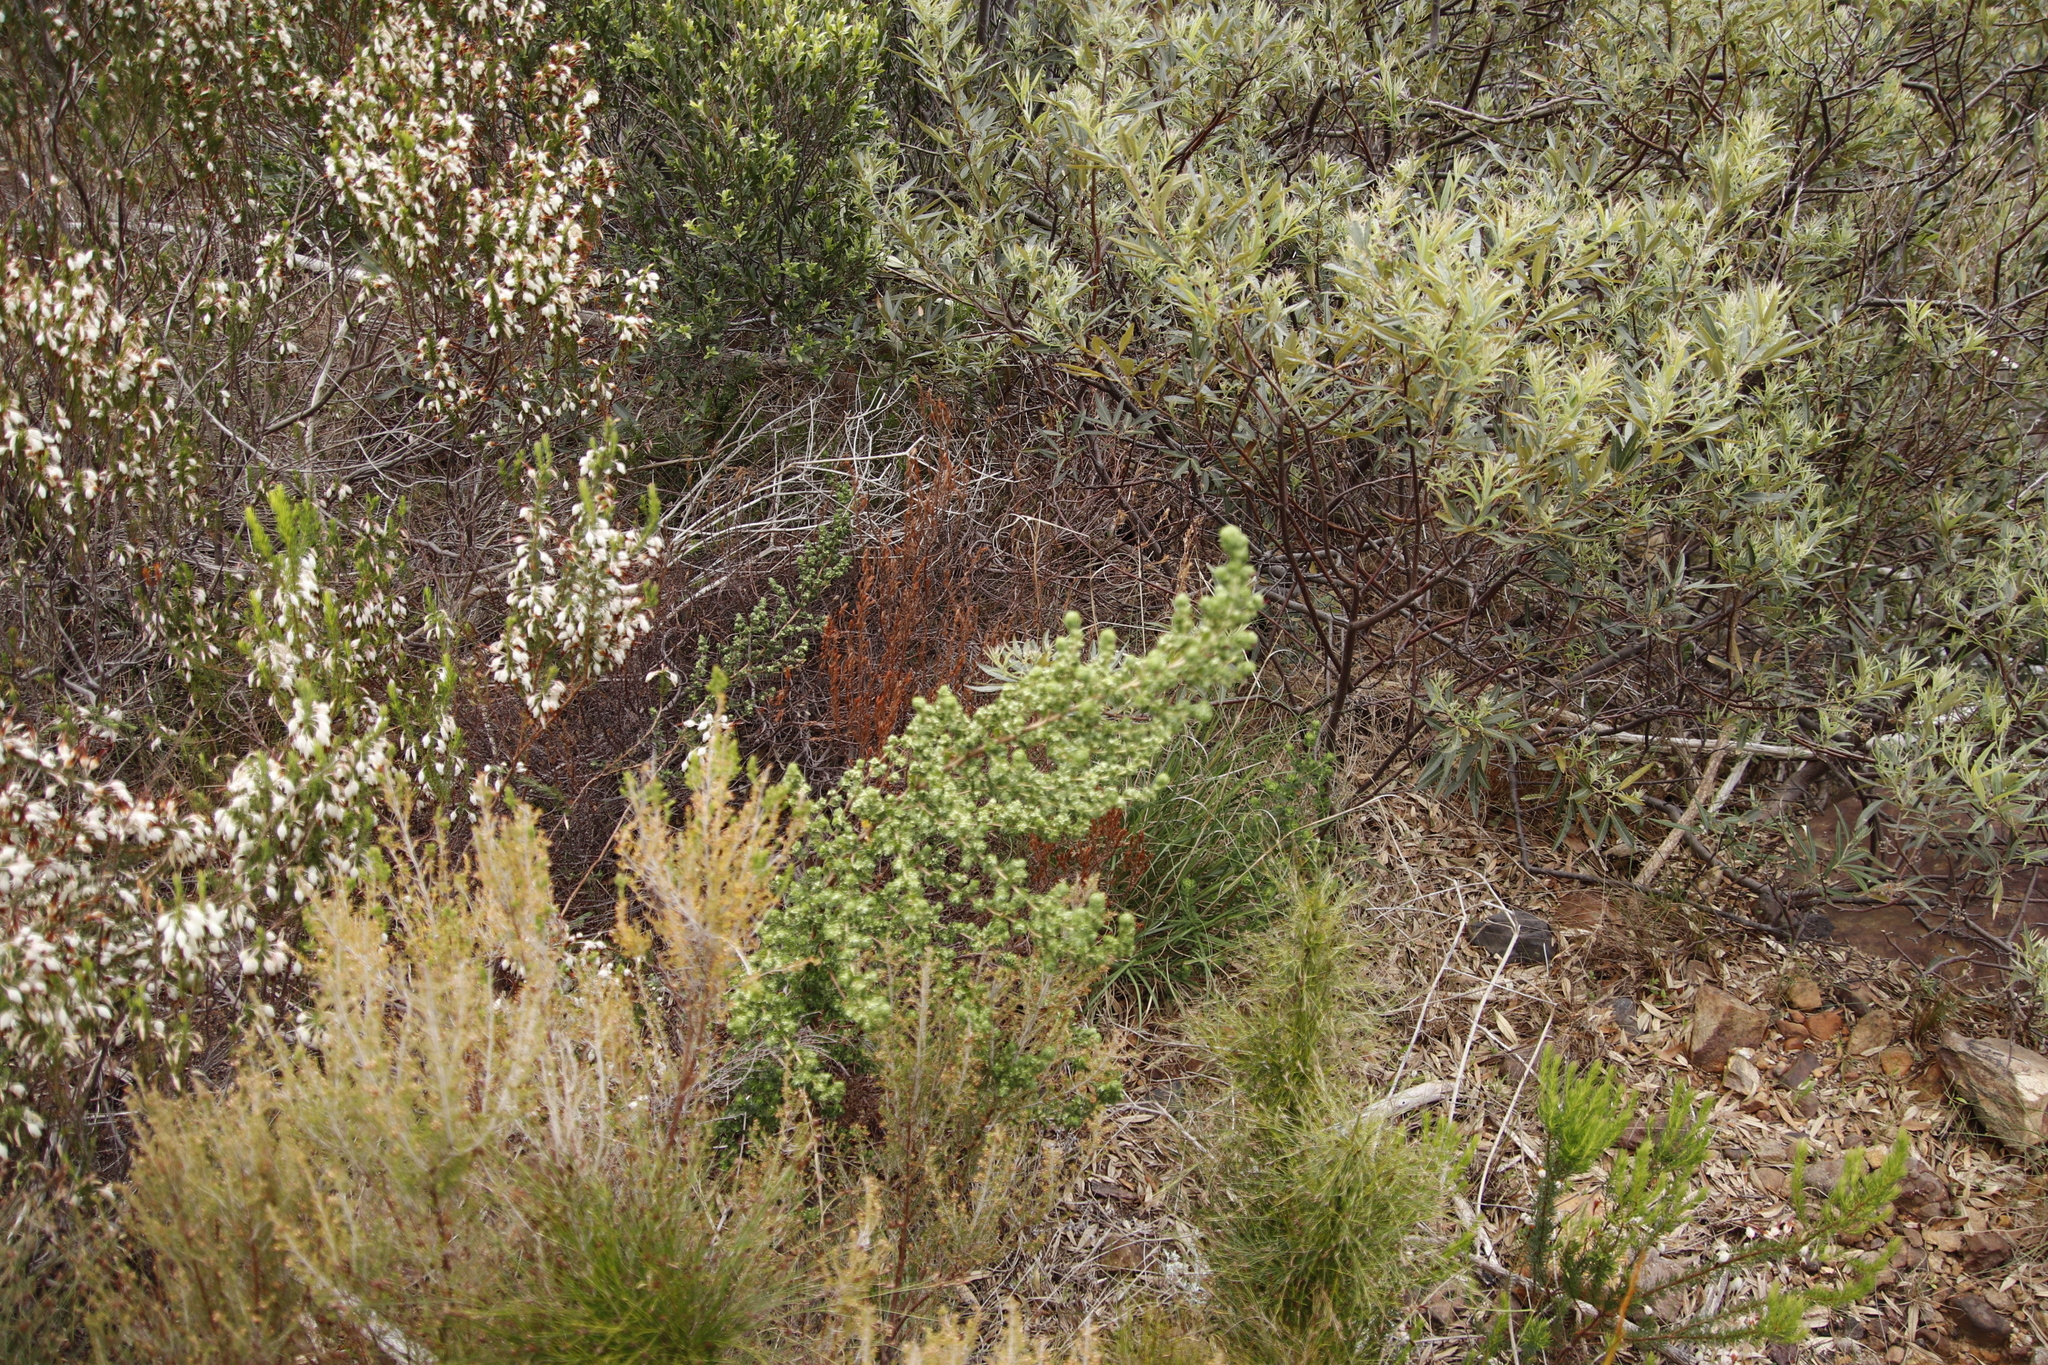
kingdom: Plantae
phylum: Tracheophyta
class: Magnoliopsida
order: Rosales
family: Rosaceae
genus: Cliffortia
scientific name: Cliffortia polygonifolia
